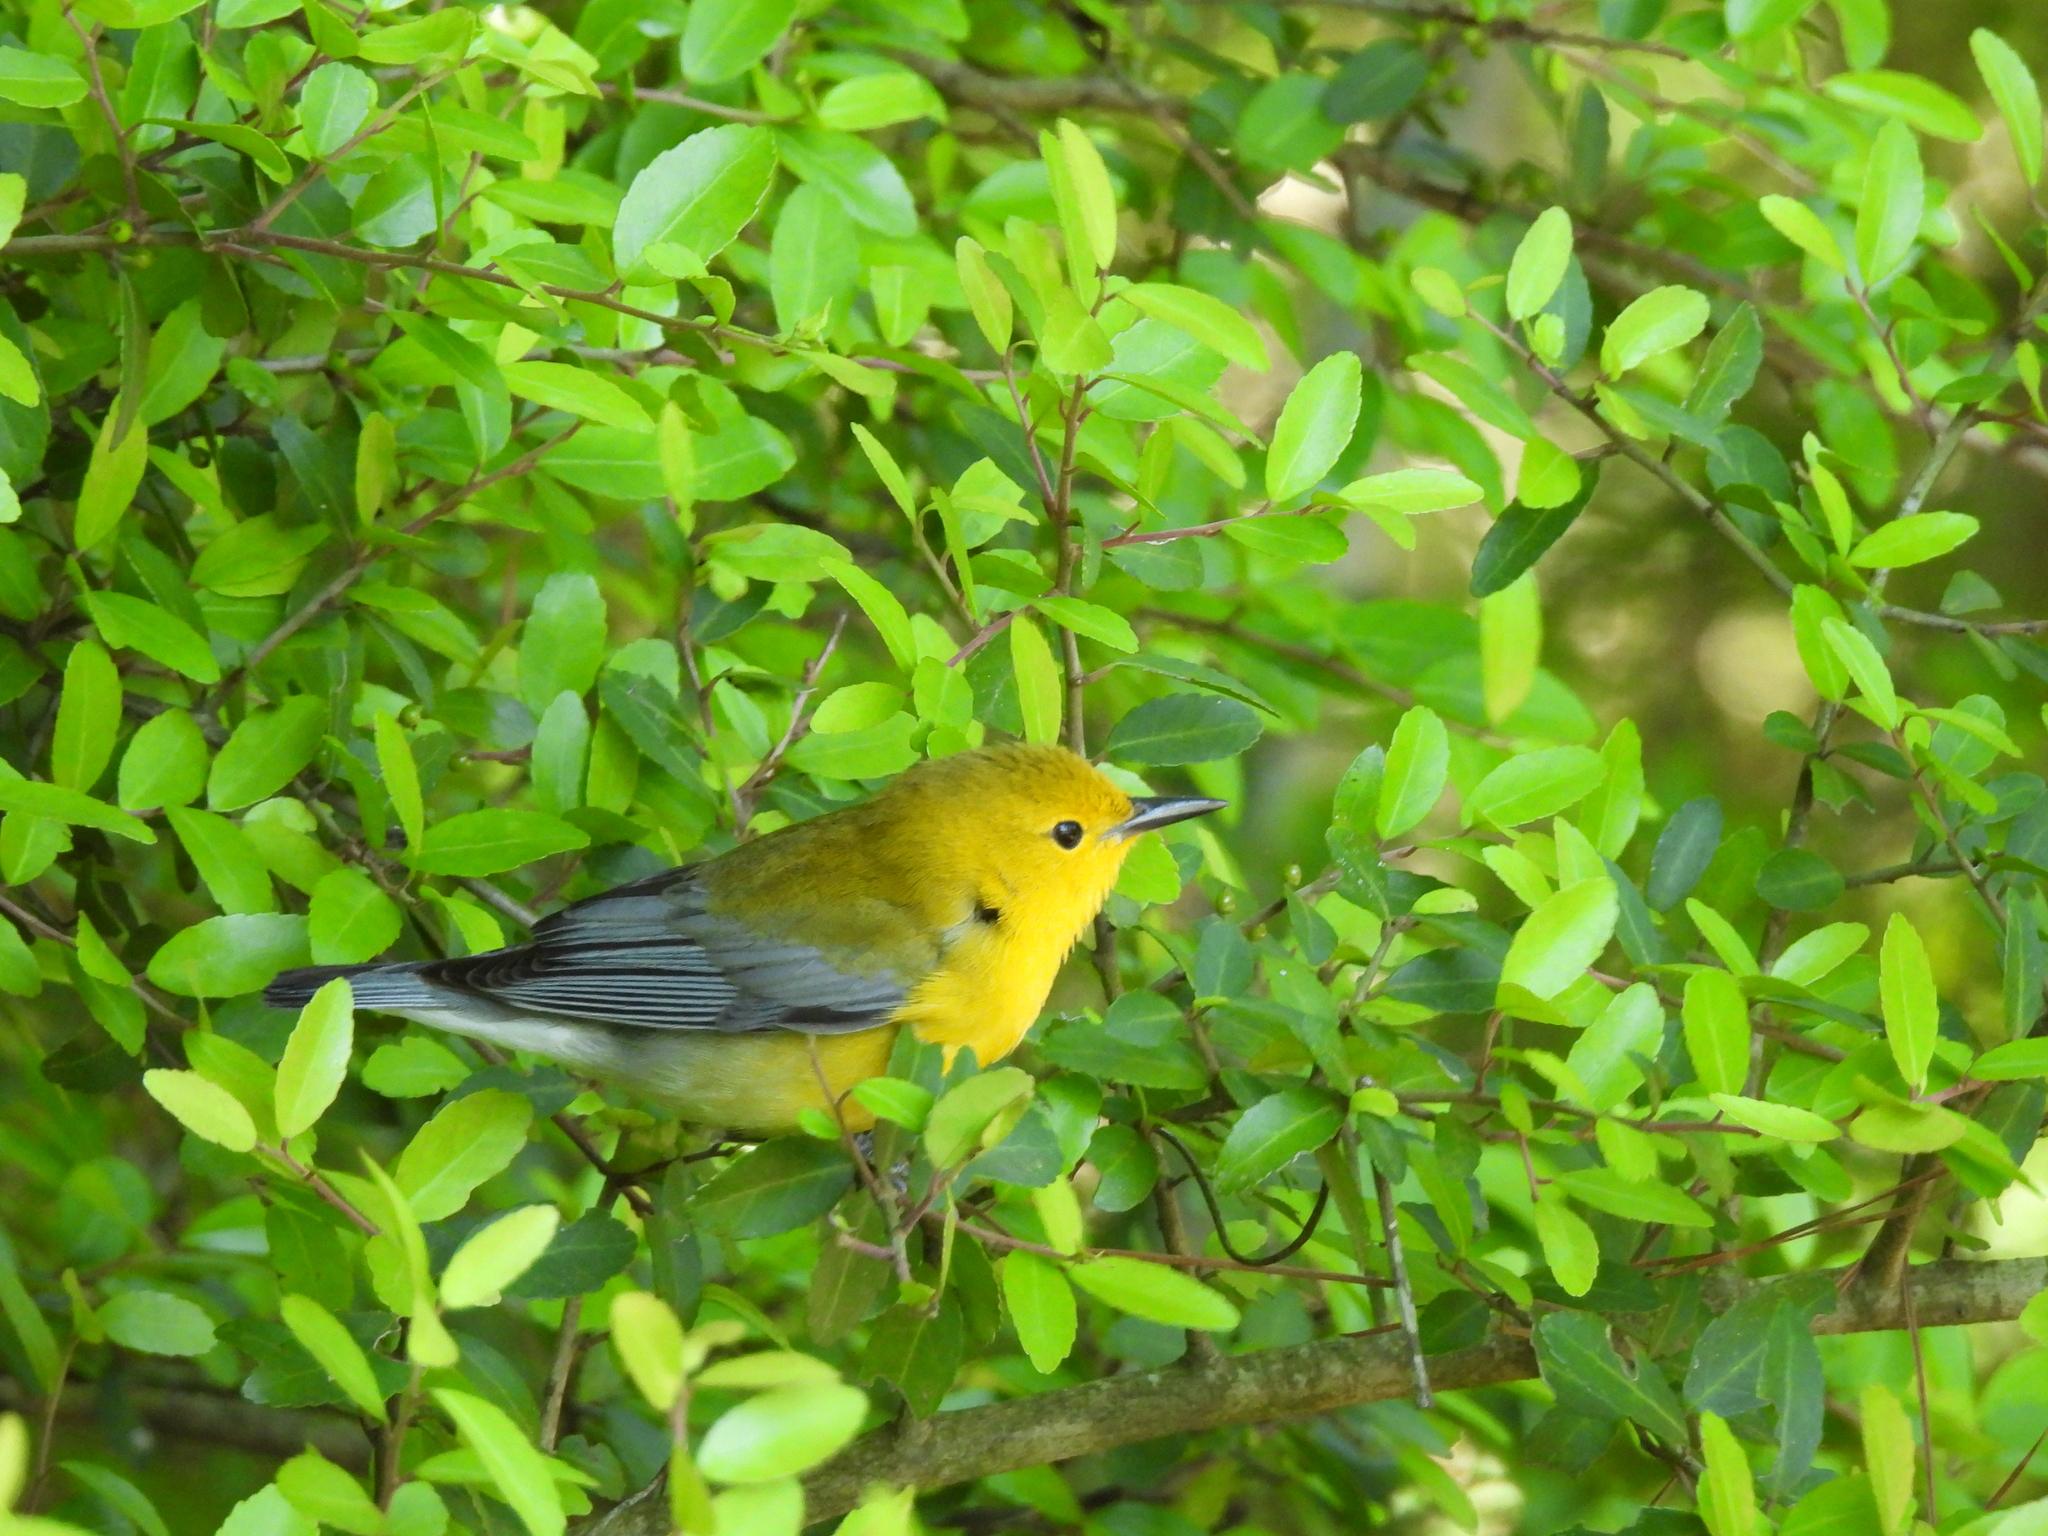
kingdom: Animalia
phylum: Chordata
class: Aves
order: Passeriformes
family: Parulidae
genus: Protonotaria
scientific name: Protonotaria citrea
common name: Prothonotary warbler
